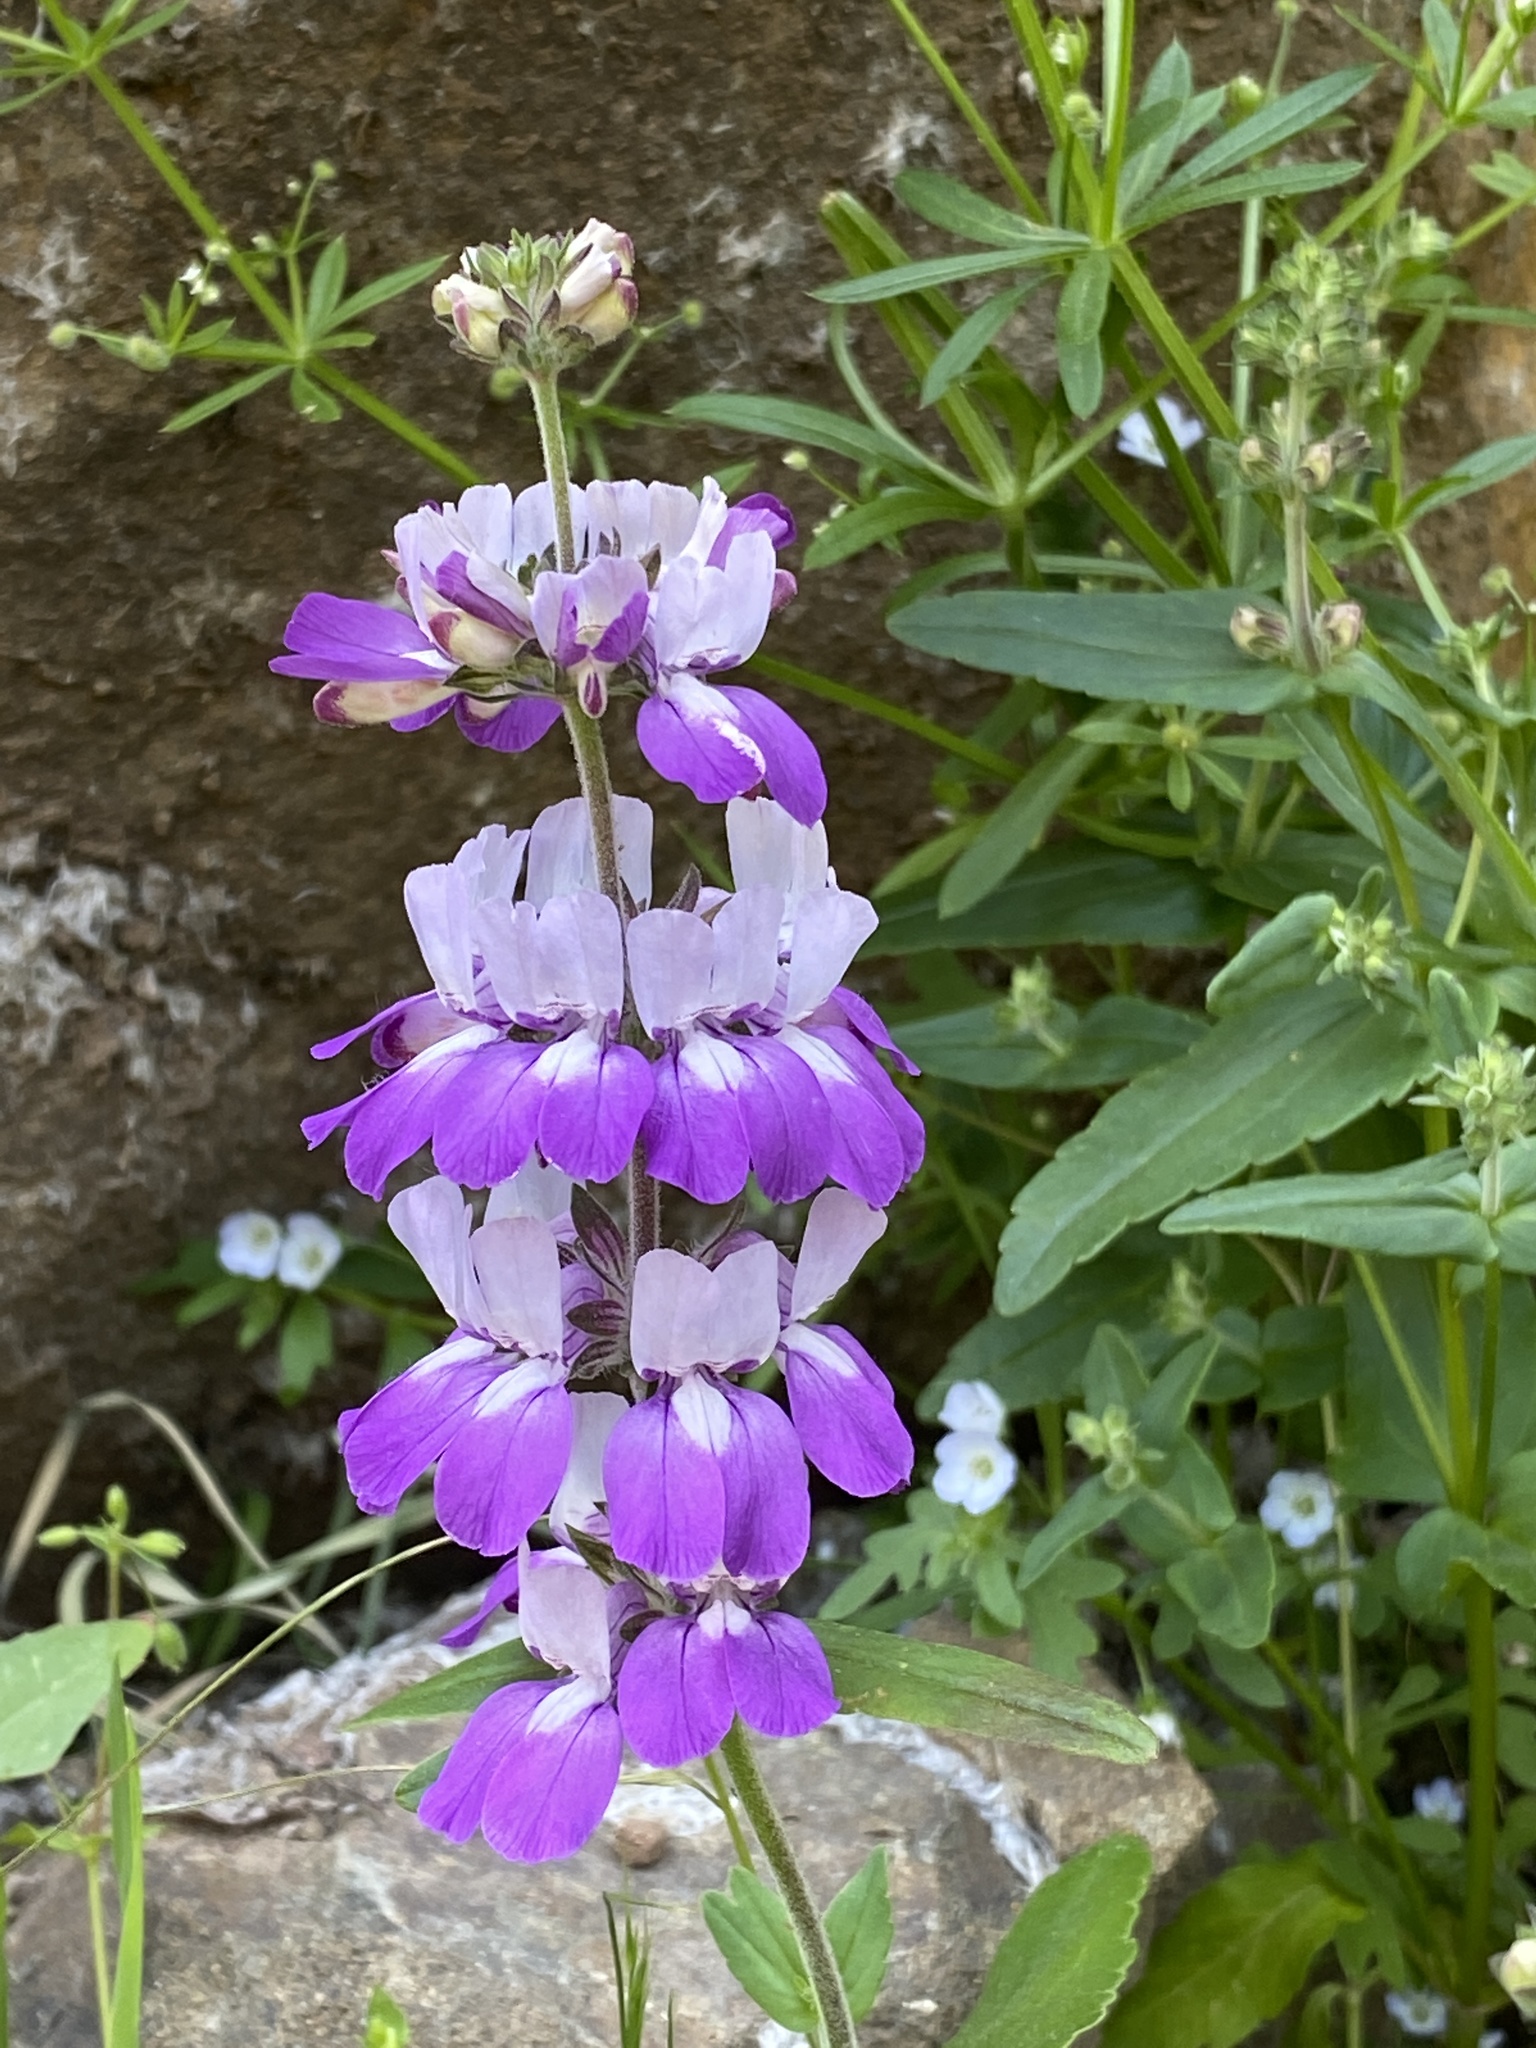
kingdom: Plantae
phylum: Tracheophyta
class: Magnoliopsida
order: Lamiales
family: Plantaginaceae
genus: Collinsia
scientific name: Collinsia heterophylla
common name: Chinese-houses
